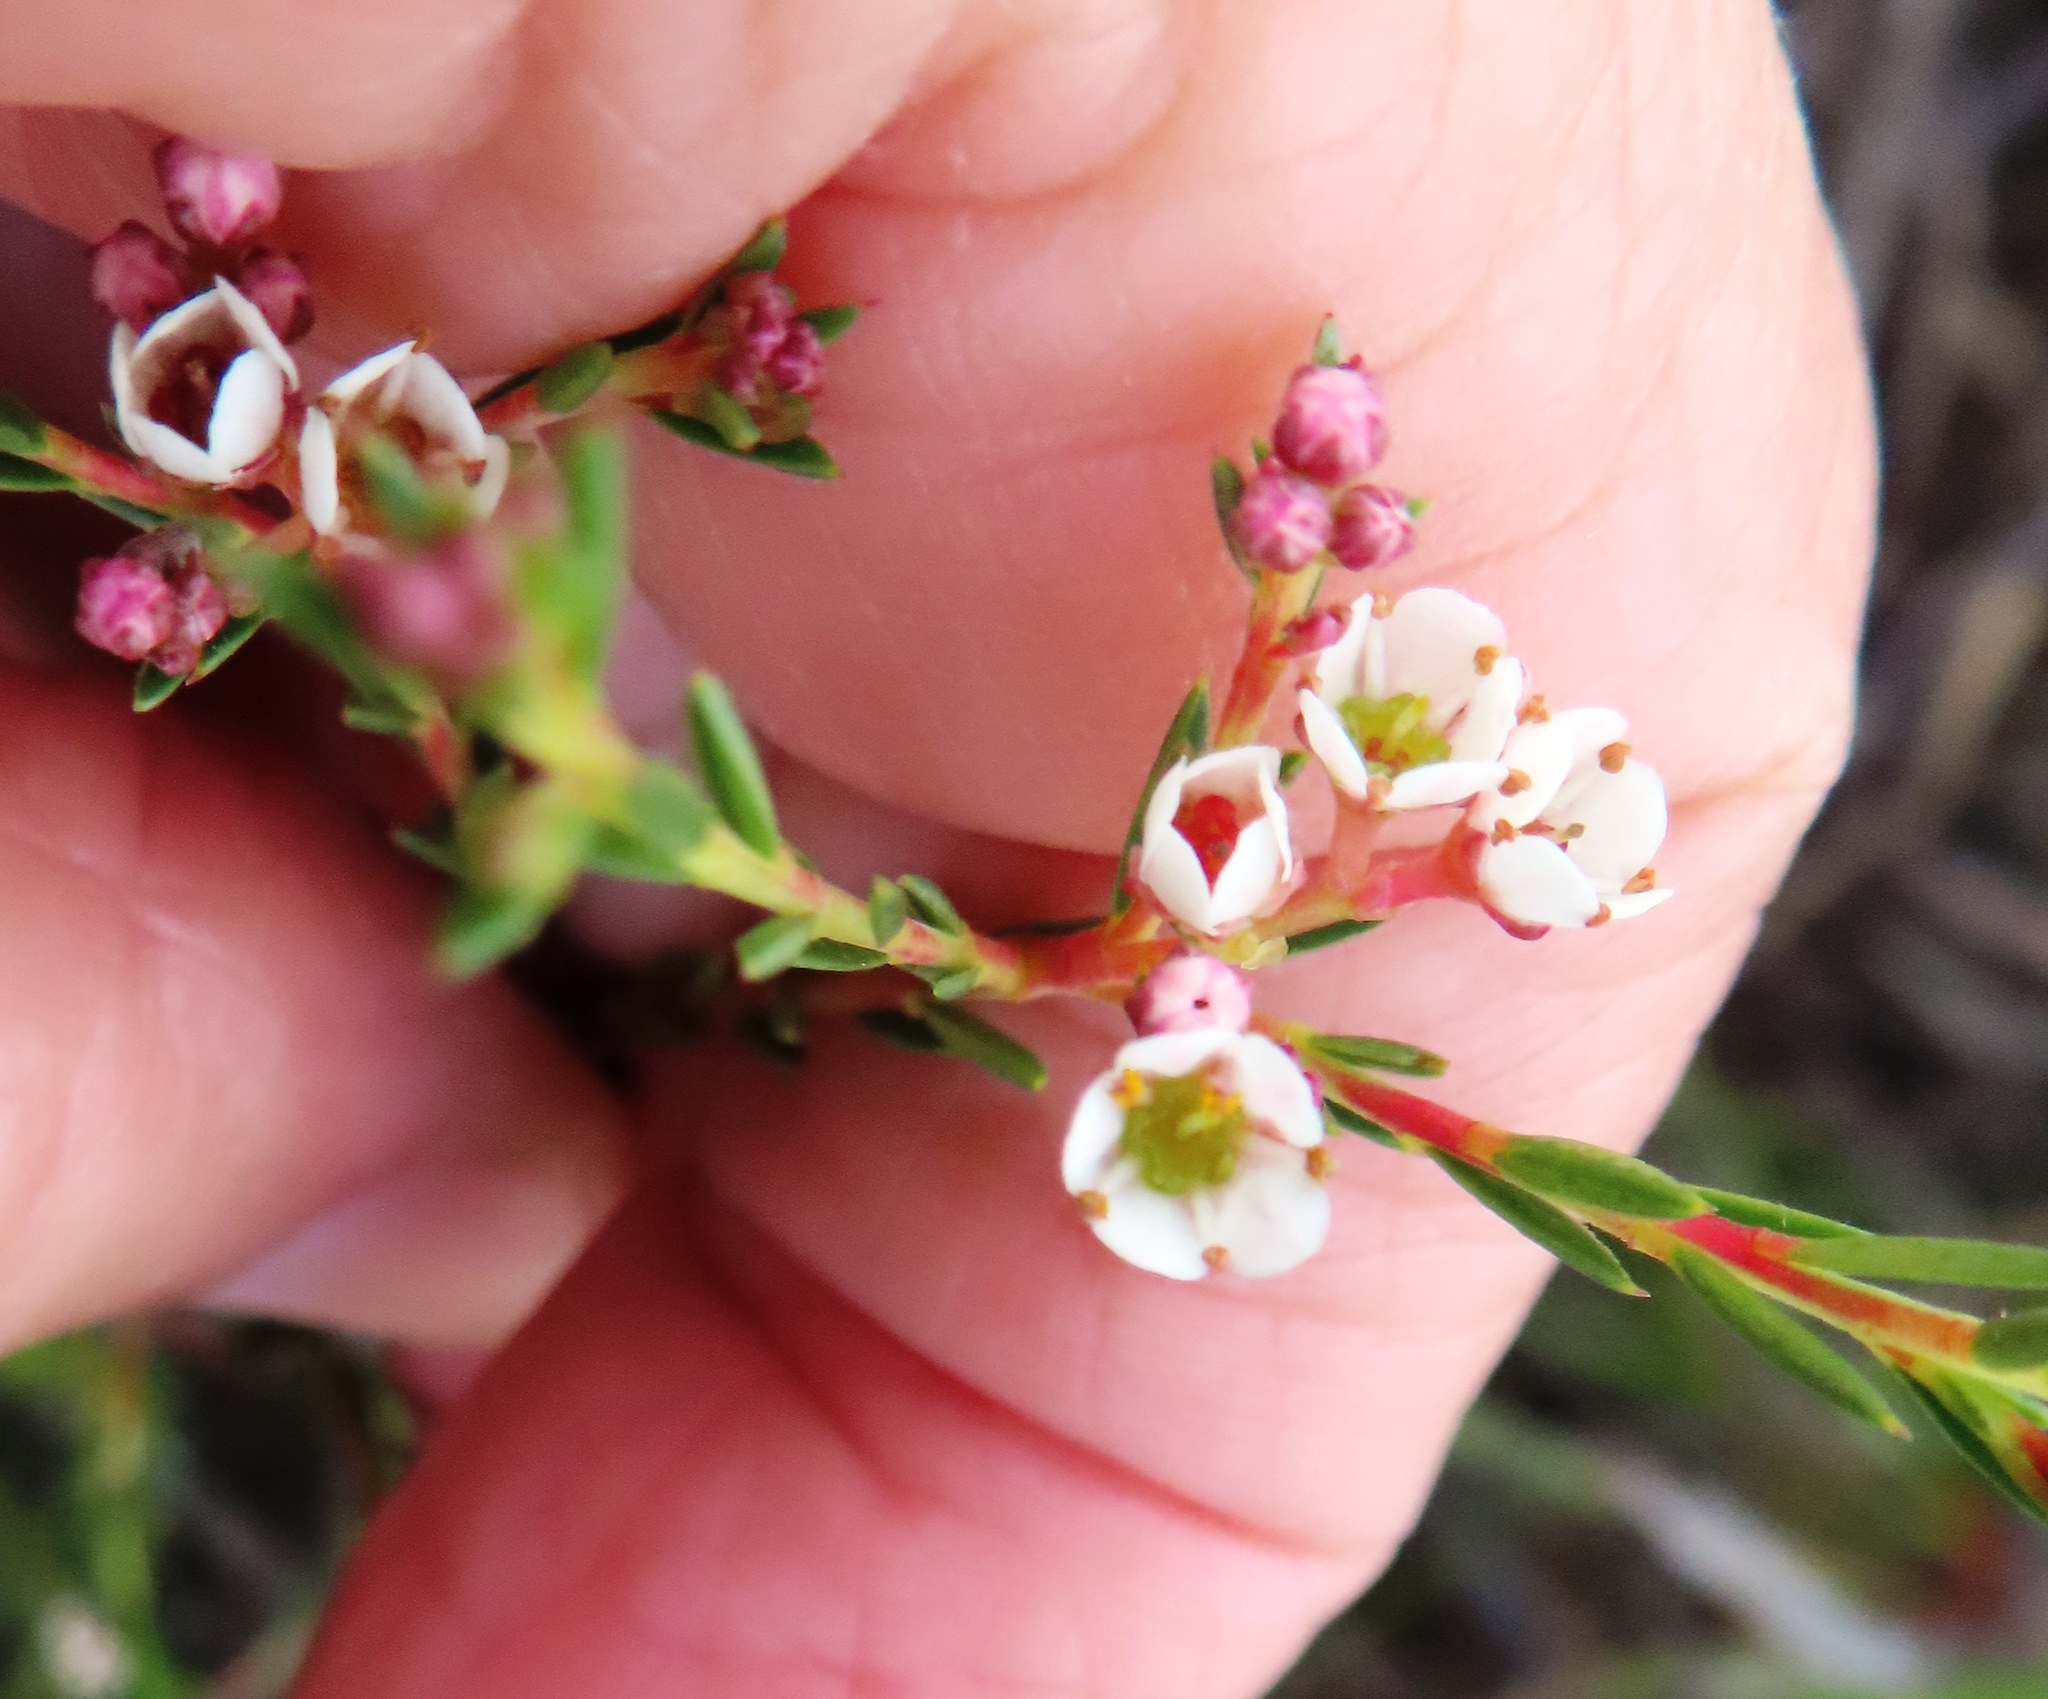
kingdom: Plantae
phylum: Tracheophyta
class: Magnoliopsida
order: Sapindales
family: Rutaceae
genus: Diosma
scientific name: Diosma hirsuta
